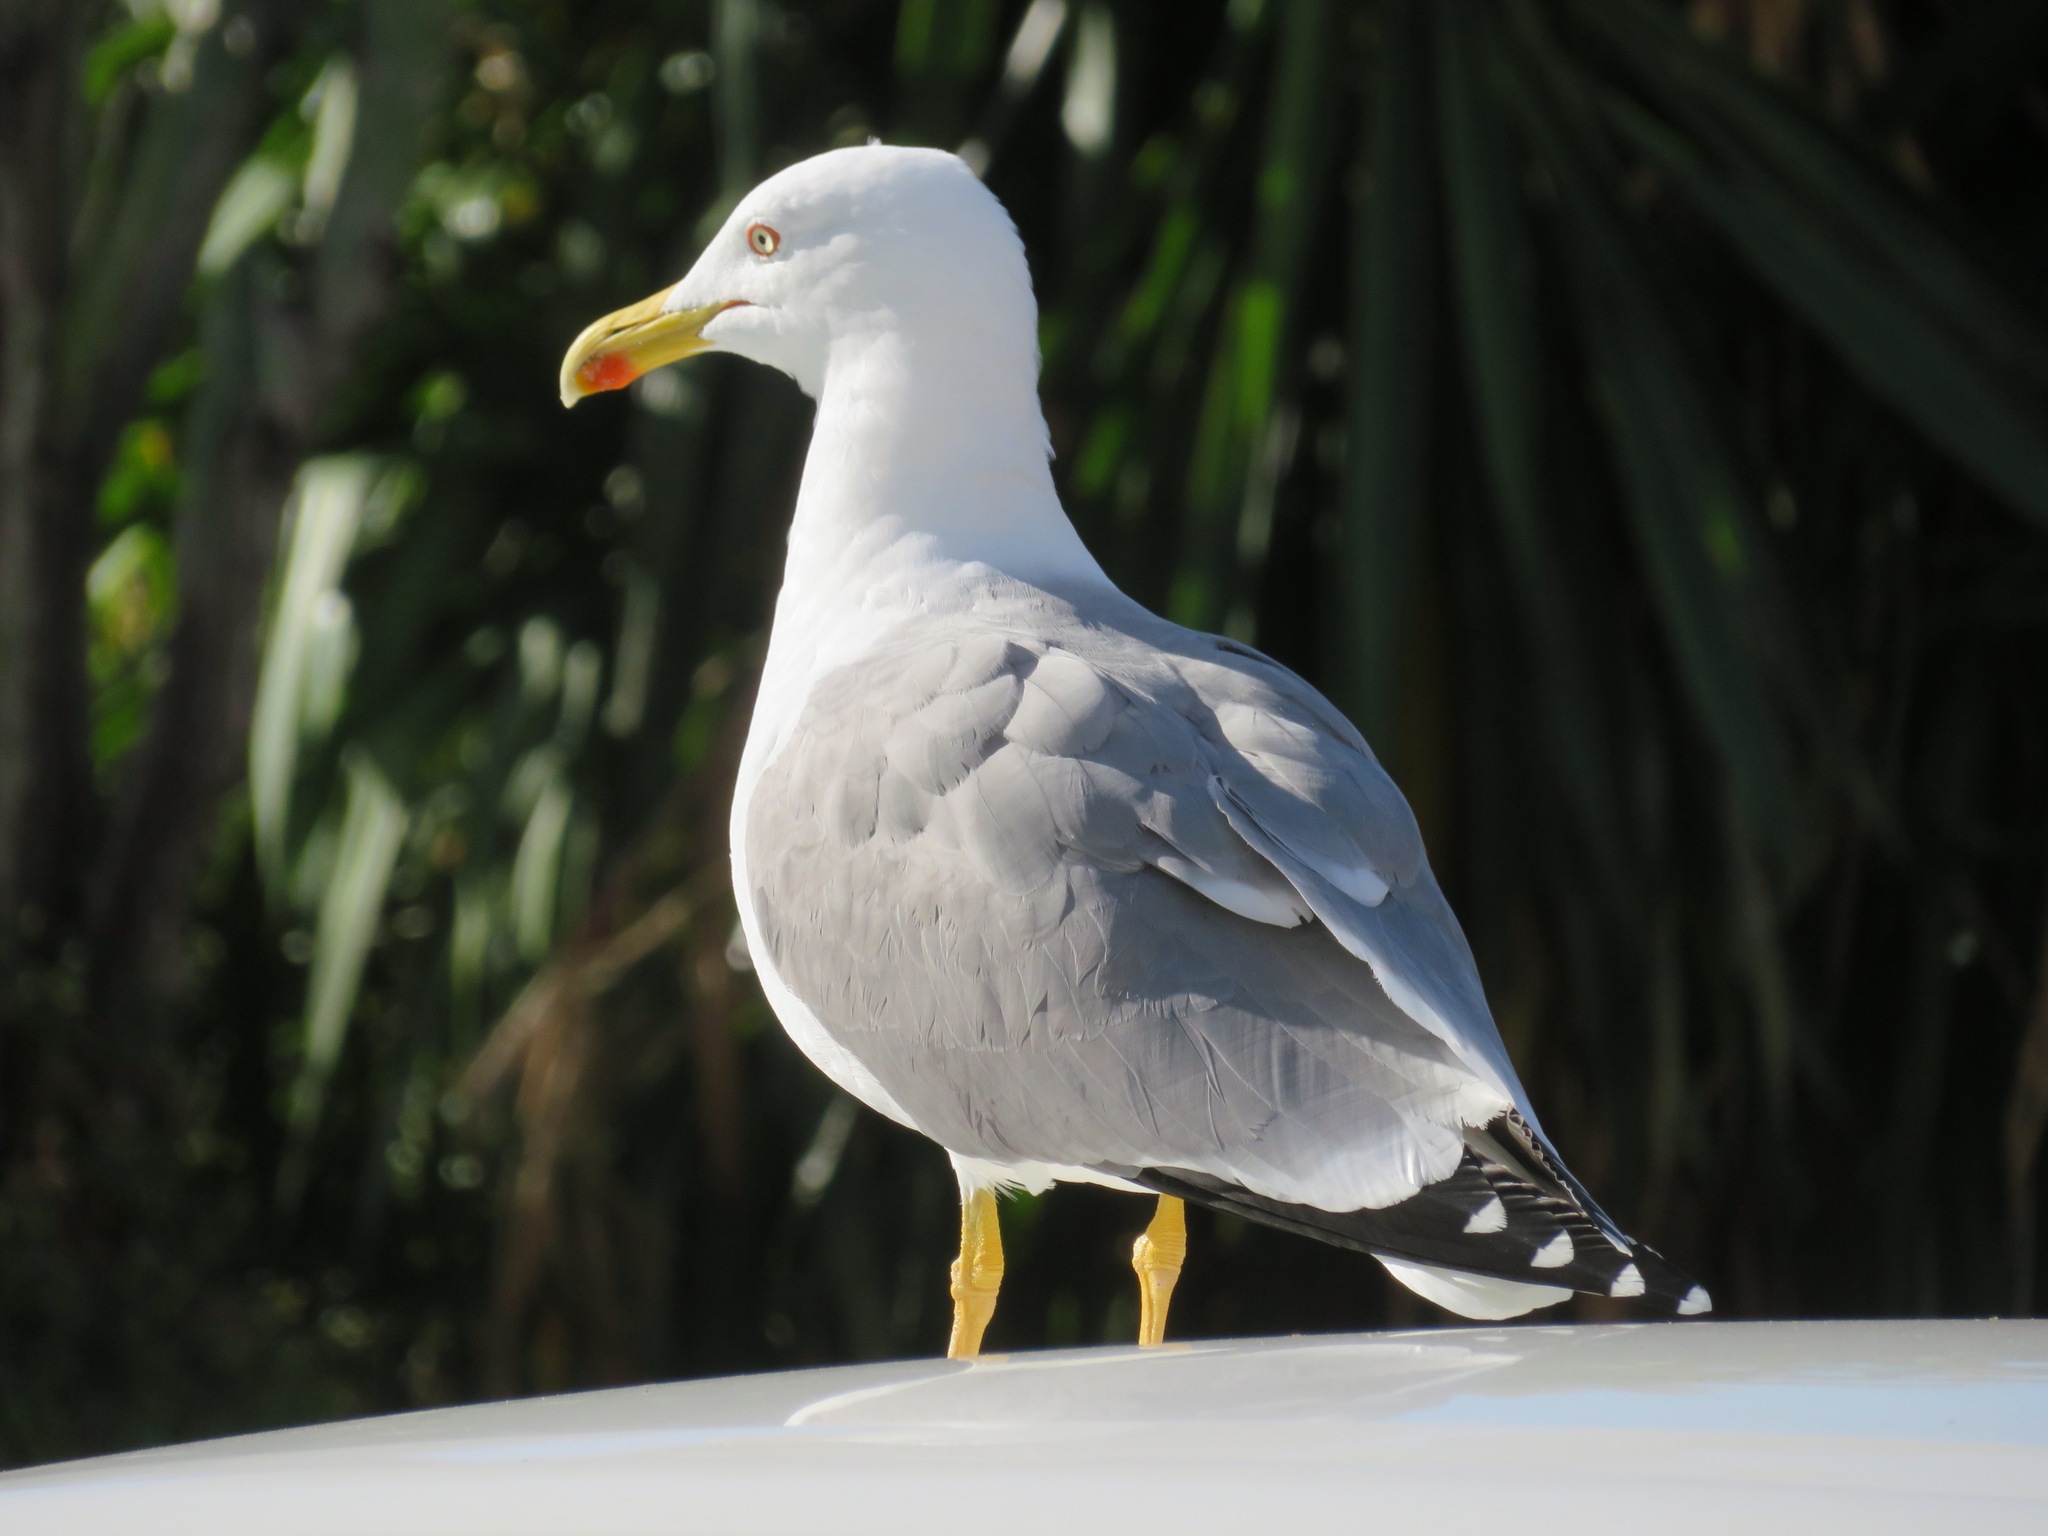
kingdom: Animalia
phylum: Chordata
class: Aves
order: Charadriiformes
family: Laridae
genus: Larus
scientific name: Larus michahellis
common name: Yellow-legged gull
